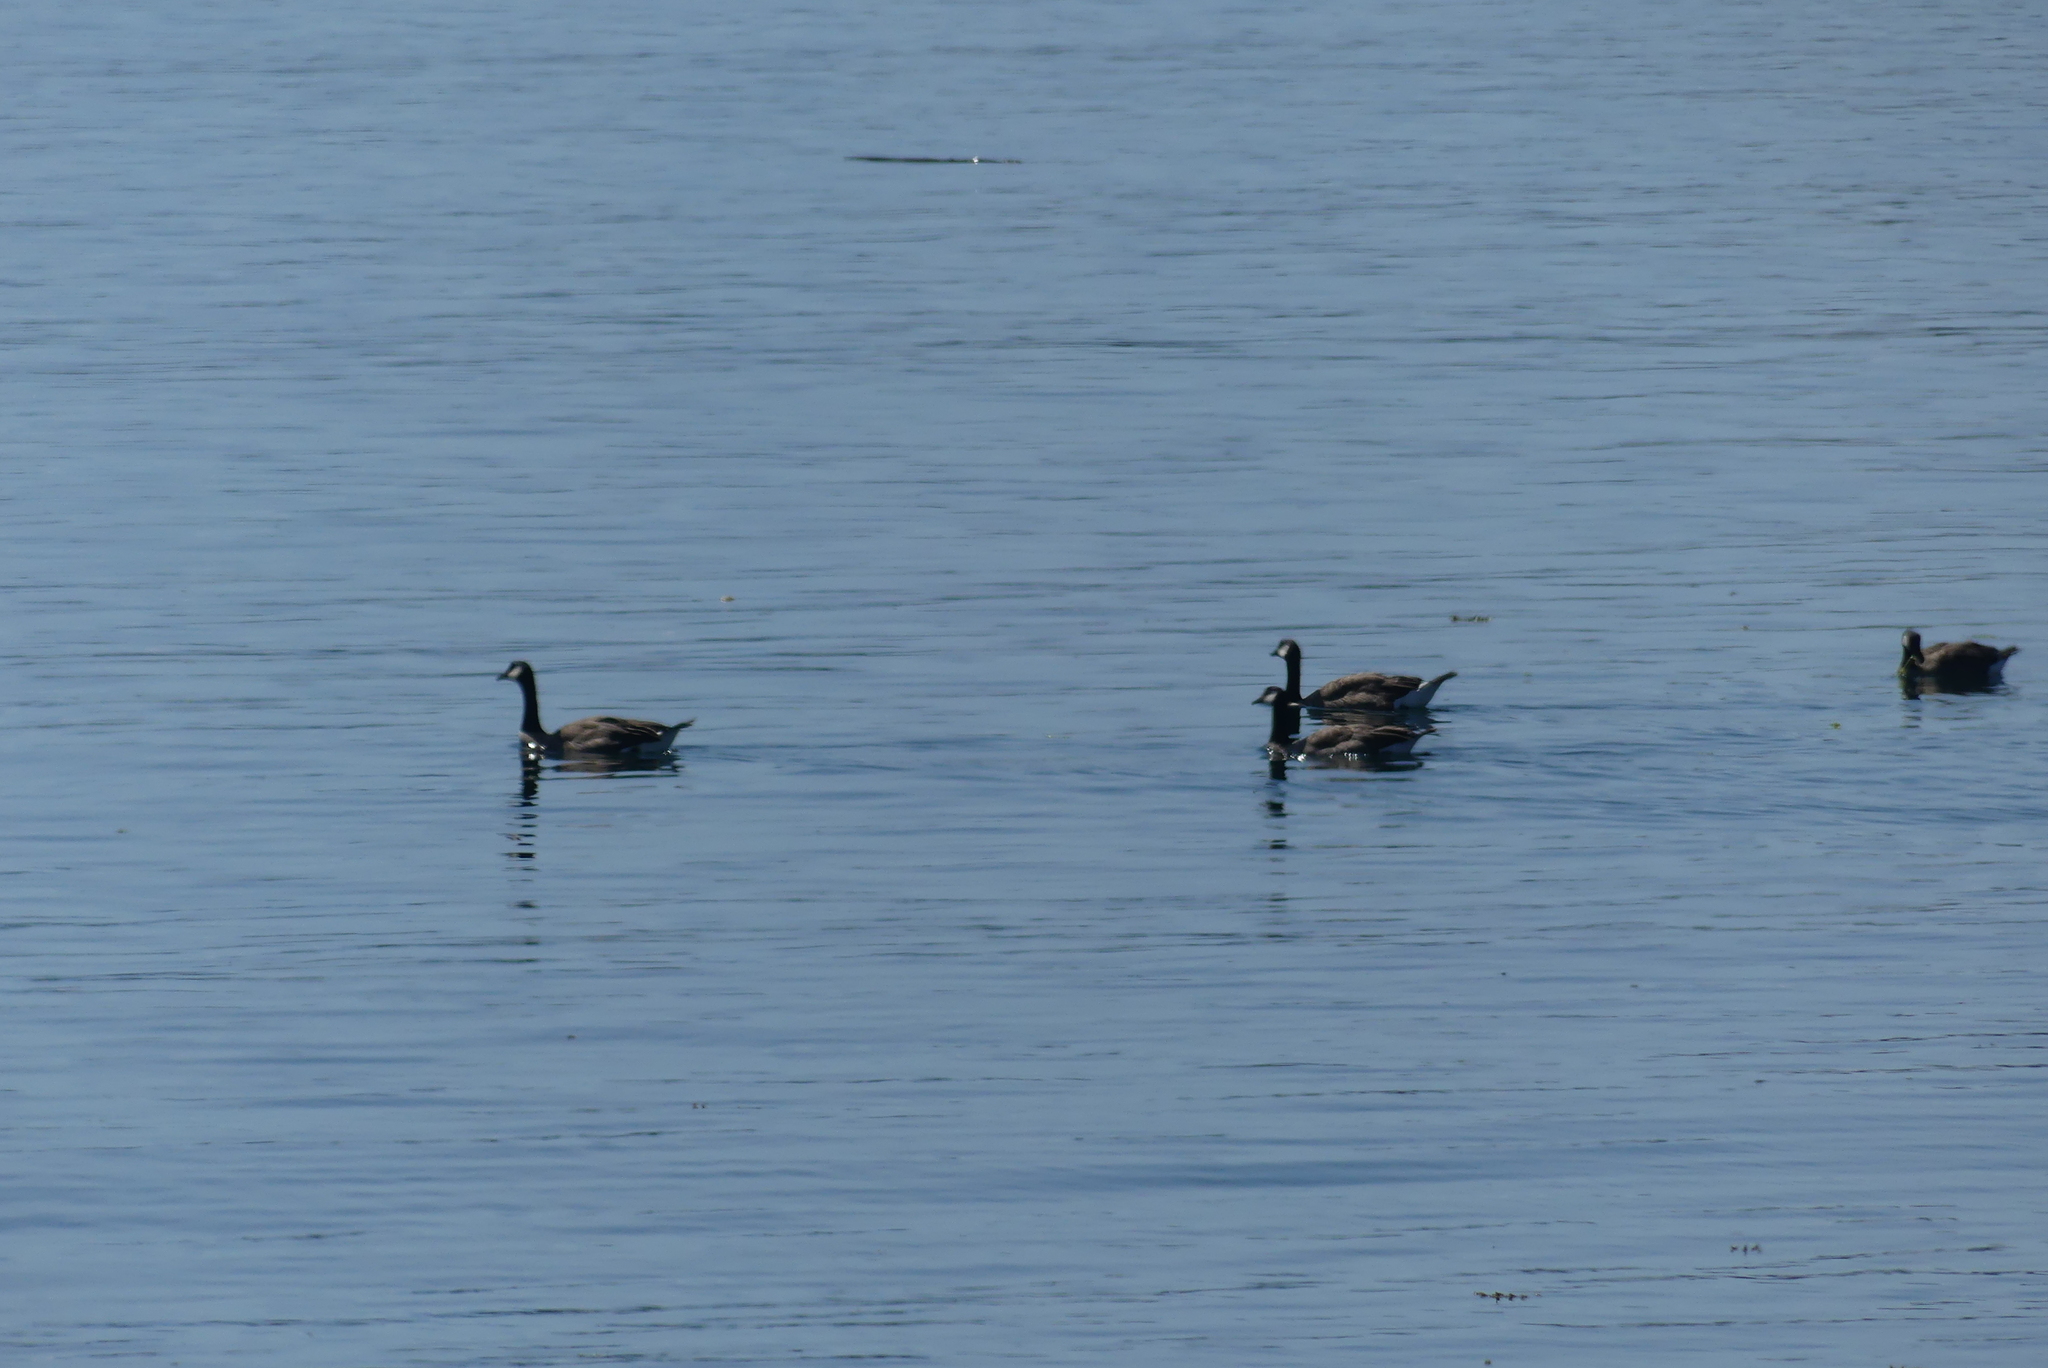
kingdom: Animalia
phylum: Chordata
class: Aves
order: Anseriformes
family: Anatidae
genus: Branta
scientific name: Branta canadensis
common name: Canada goose
